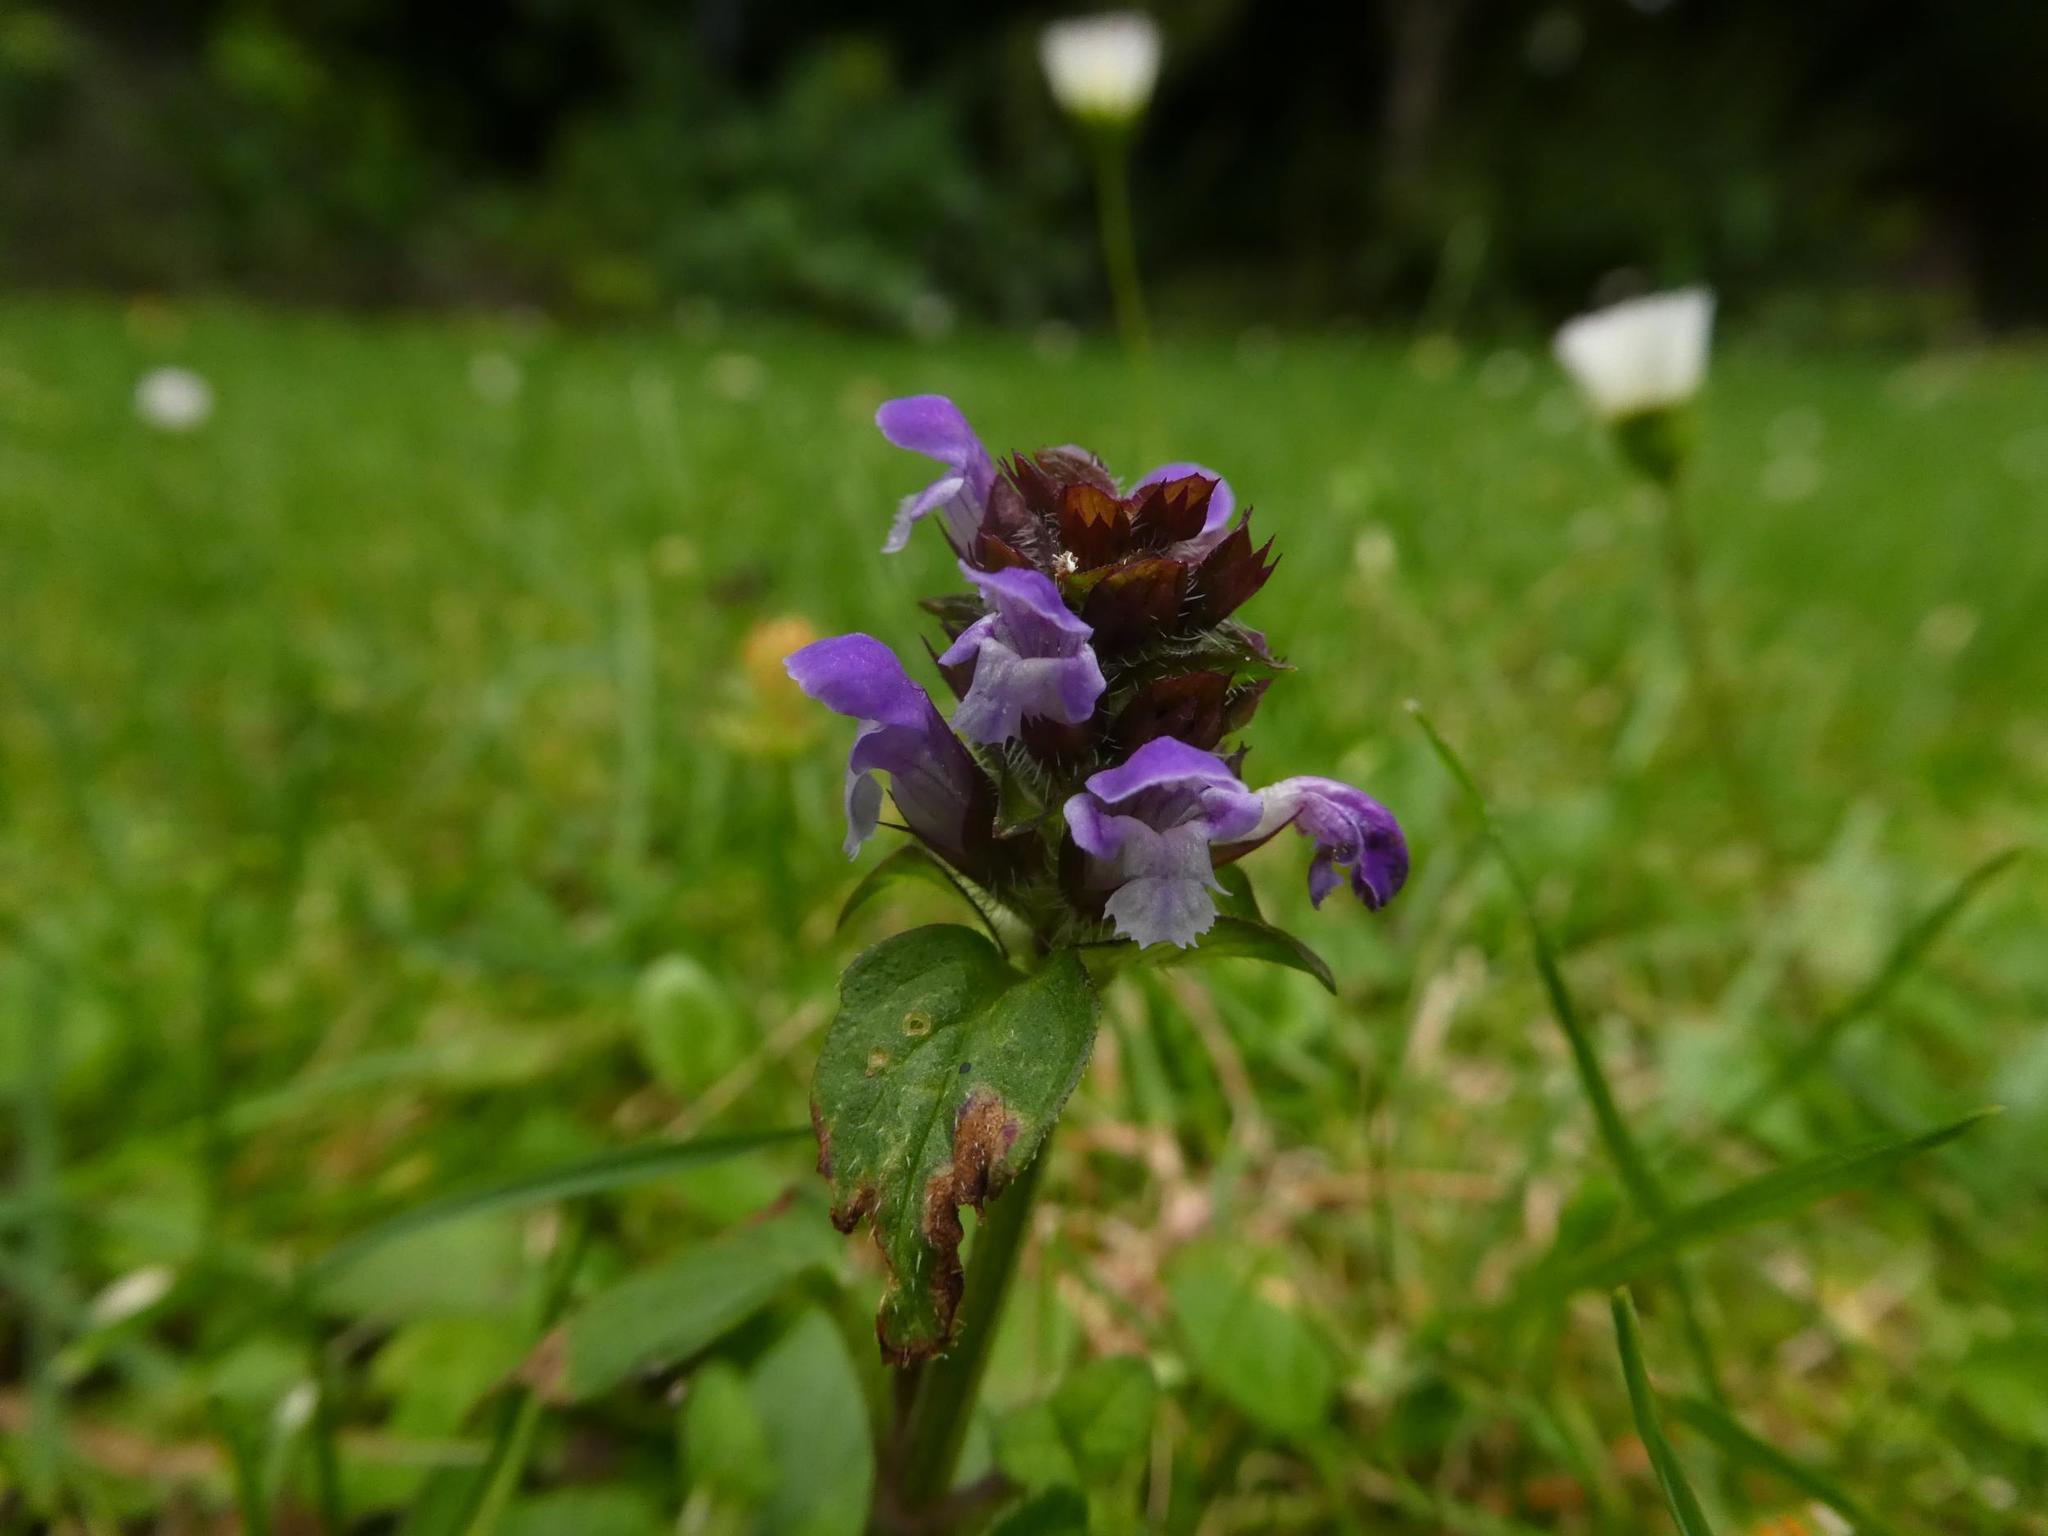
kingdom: Plantae
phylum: Tracheophyta
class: Magnoliopsida
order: Lamiales
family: Lamiaceae
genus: Prunella
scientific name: Prunella vulgaris
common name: Heal-all
